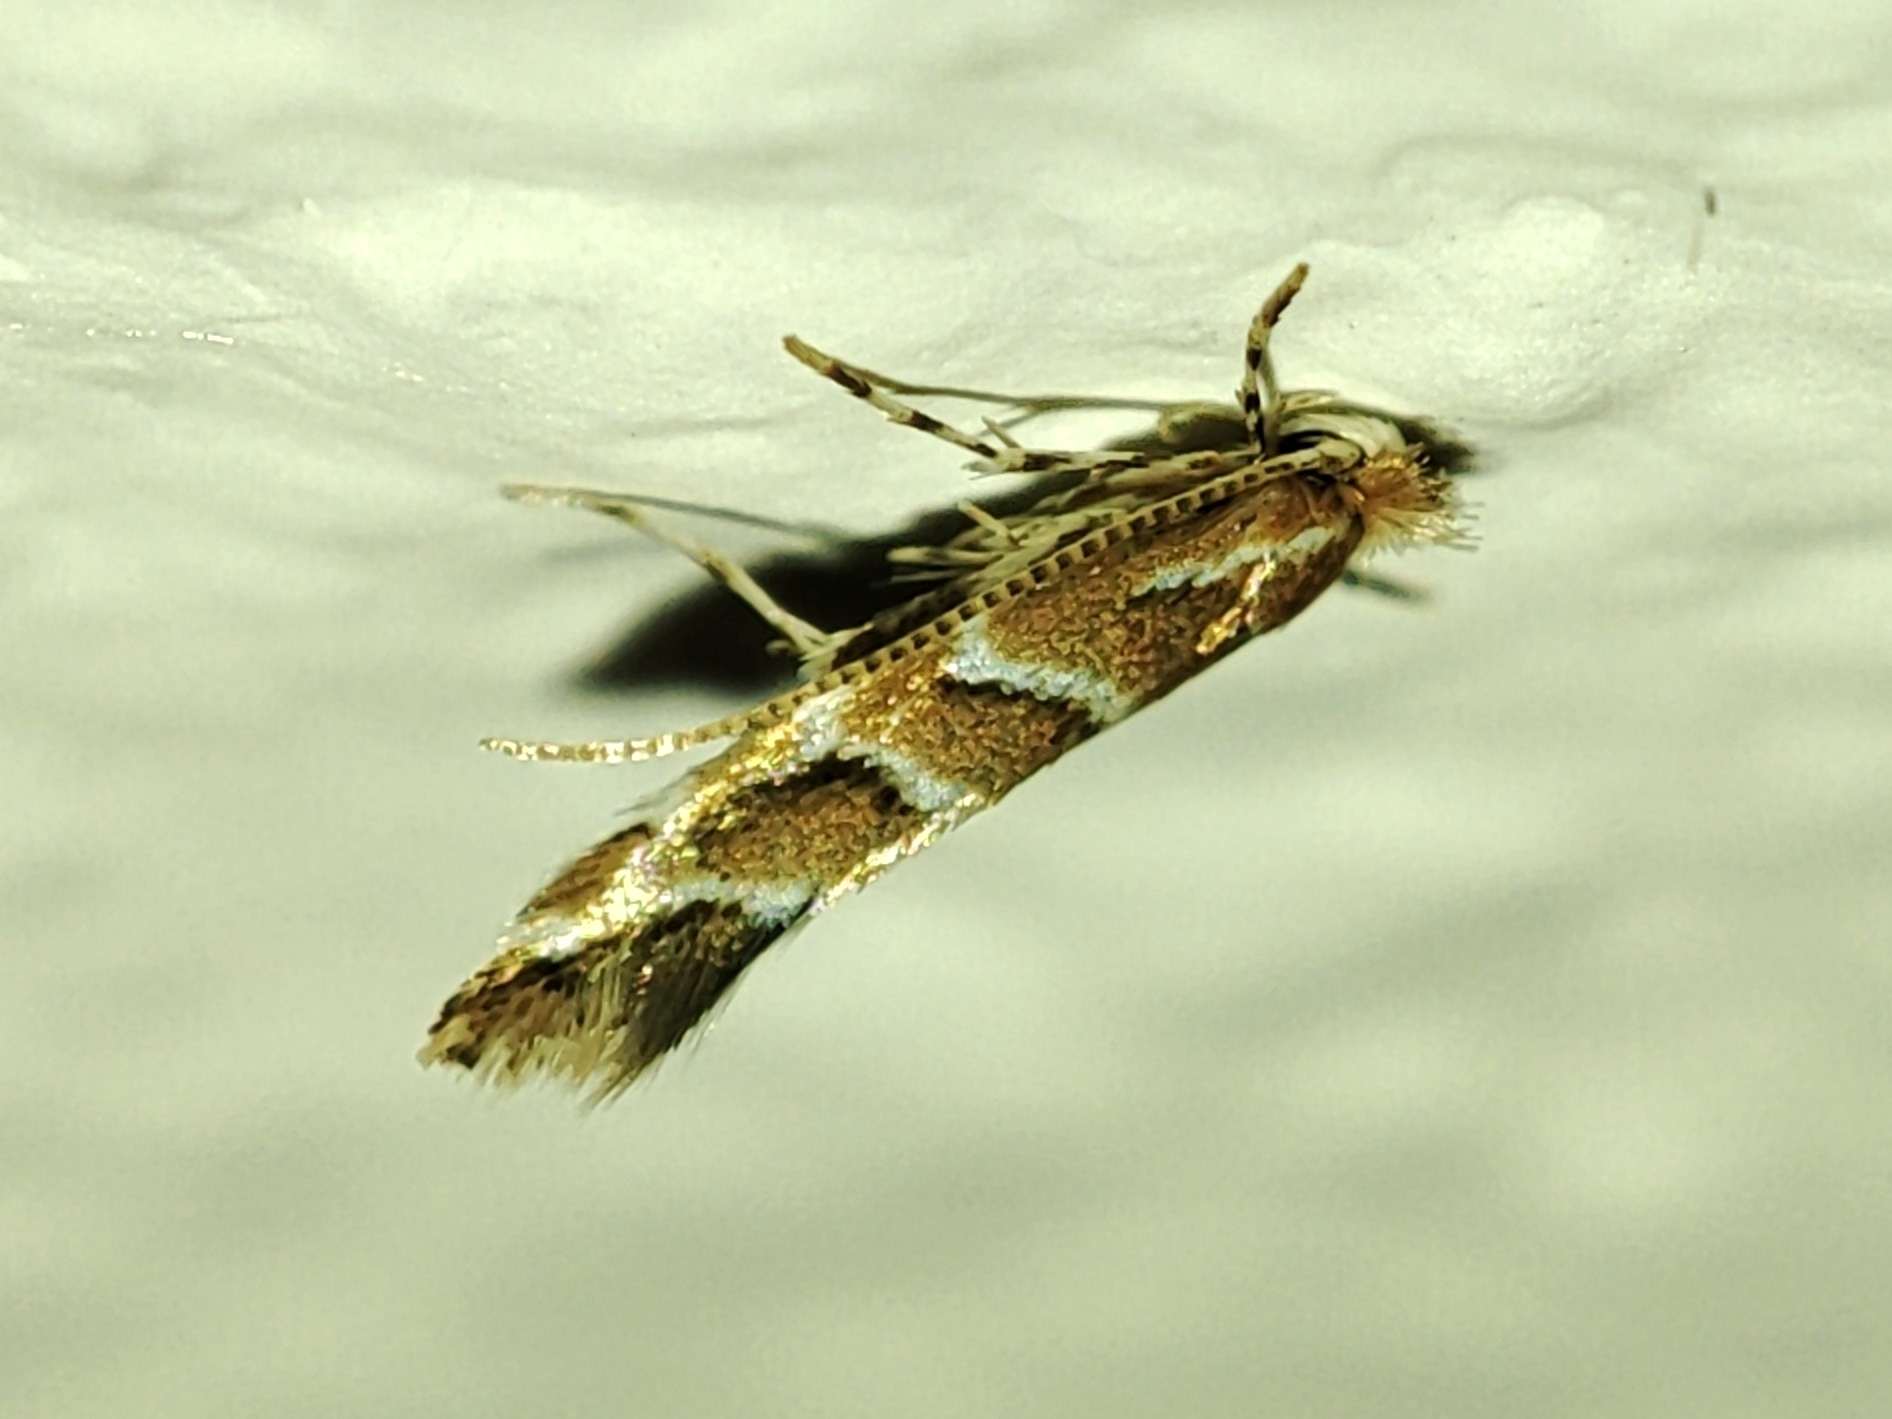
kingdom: Animalia
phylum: Arthropoda
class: Insecta
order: Lepidoptera
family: Gracillariidae
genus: Cameraria
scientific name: Cameraria ohridella
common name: Horse-chestnut leaf-miner
